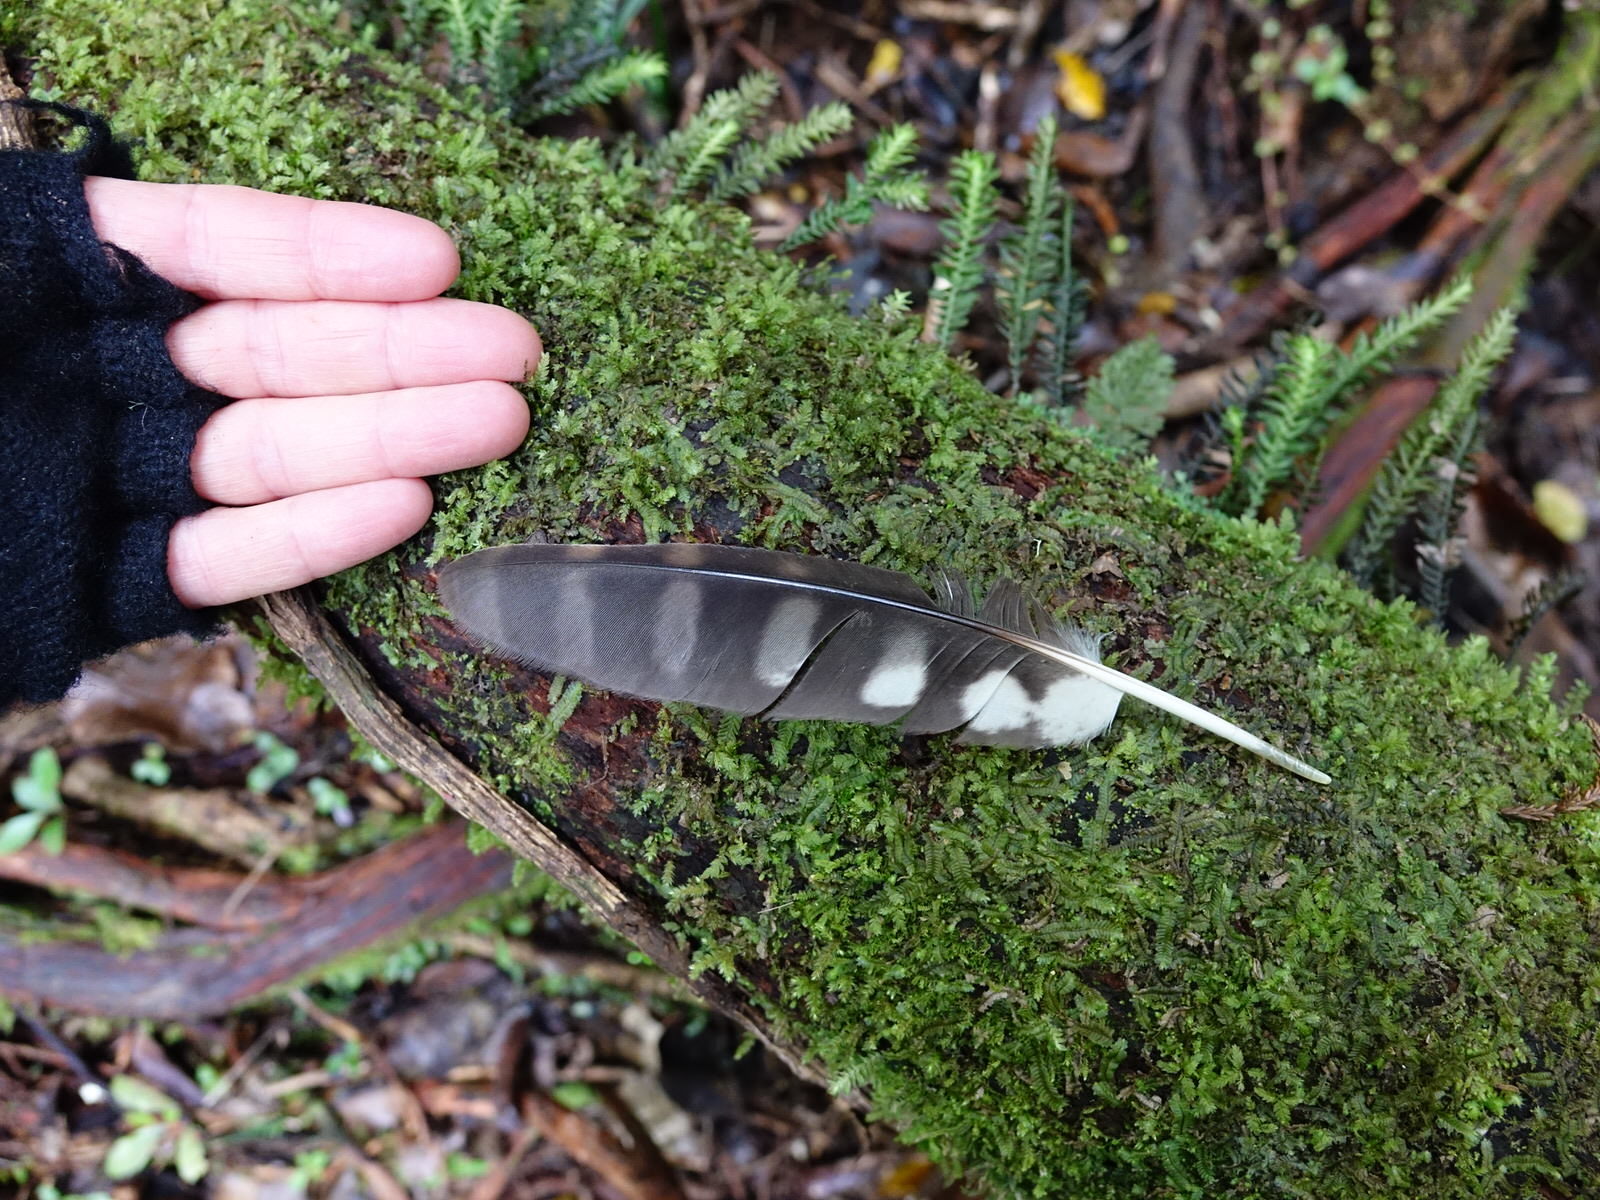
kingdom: Animalia
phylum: Chordata
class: Aves
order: Strigiformes
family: Strigidae
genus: Ninox
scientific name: Ninox novaeseelandiae
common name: Morepork
